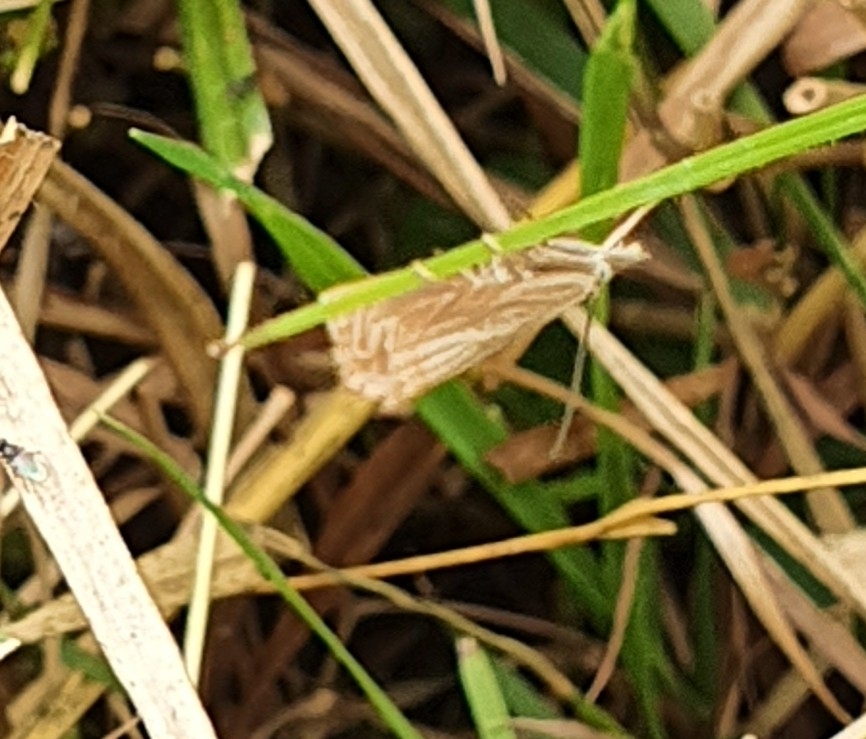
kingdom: Animalia
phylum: Arthropoda
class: Insecta
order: Lepidoptera
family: Crambidae
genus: Chrysoteuchia
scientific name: Chrysoteuchia culmella
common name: Garden grass-veneer
